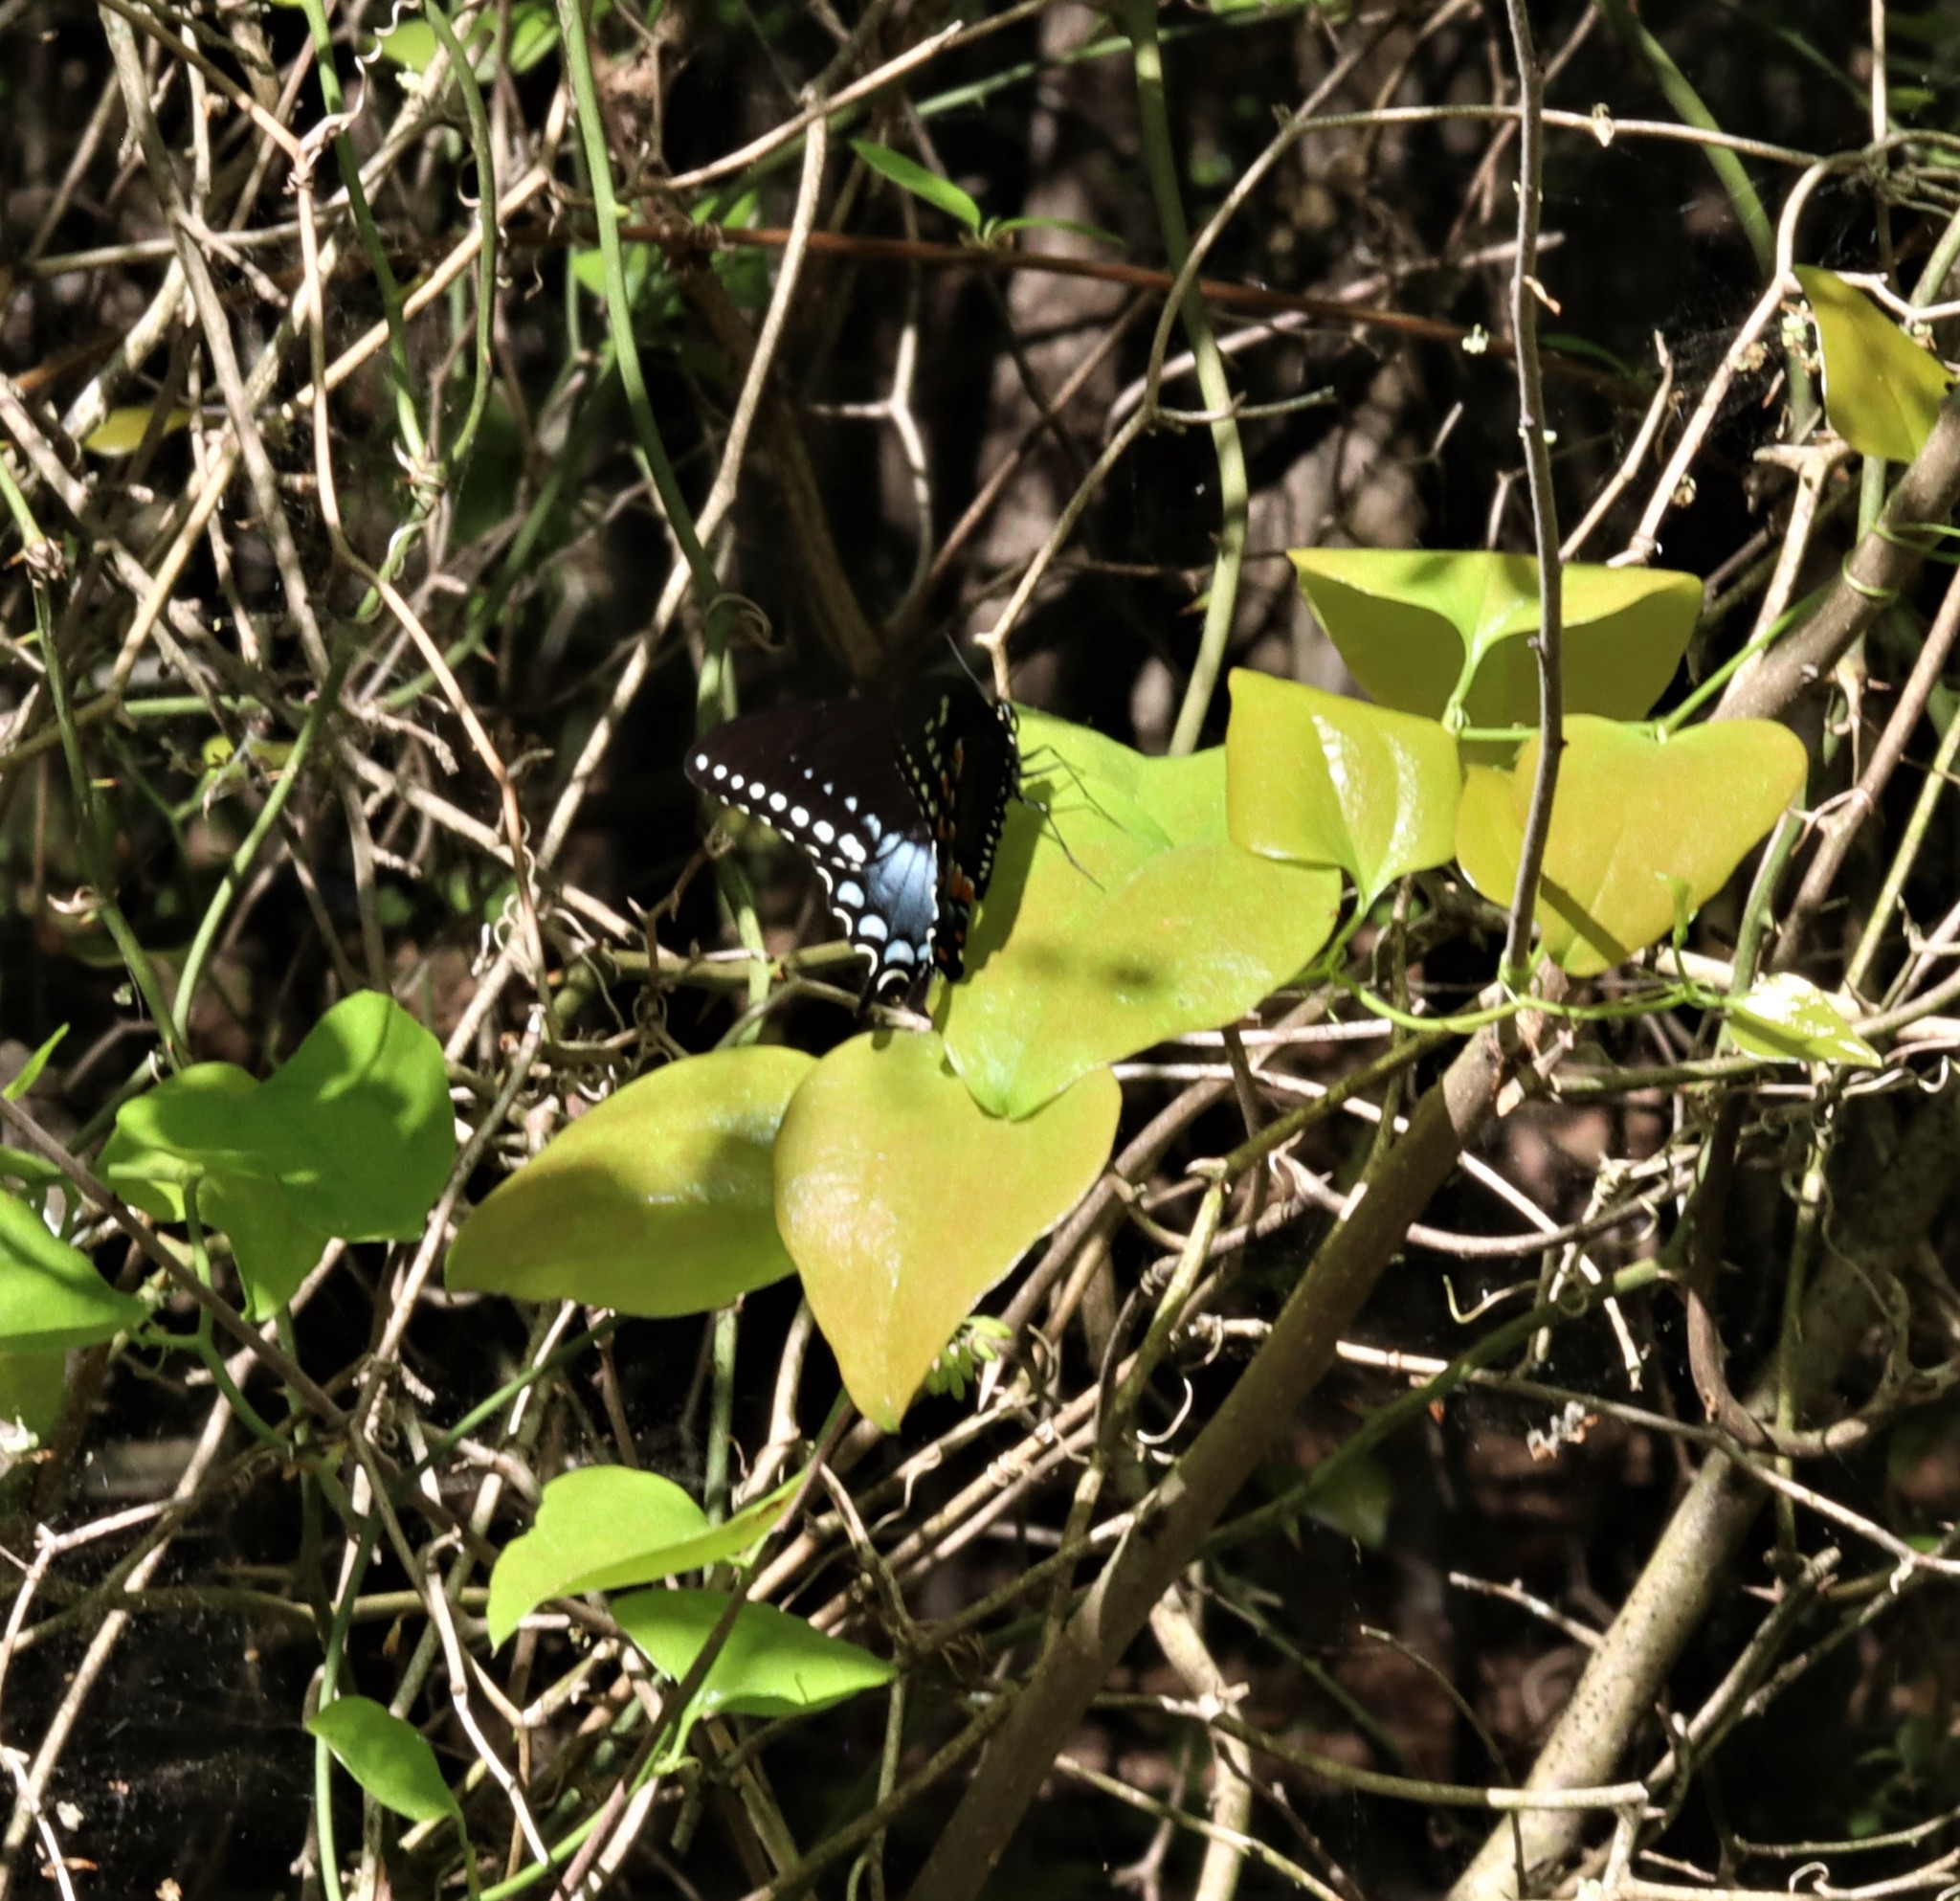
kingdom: Animalia
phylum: Arthropoda
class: Insecta
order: Lepidoptera
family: Papilionidae
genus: Papilio
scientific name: Papilio troilus
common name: Spicebush swallowtail
